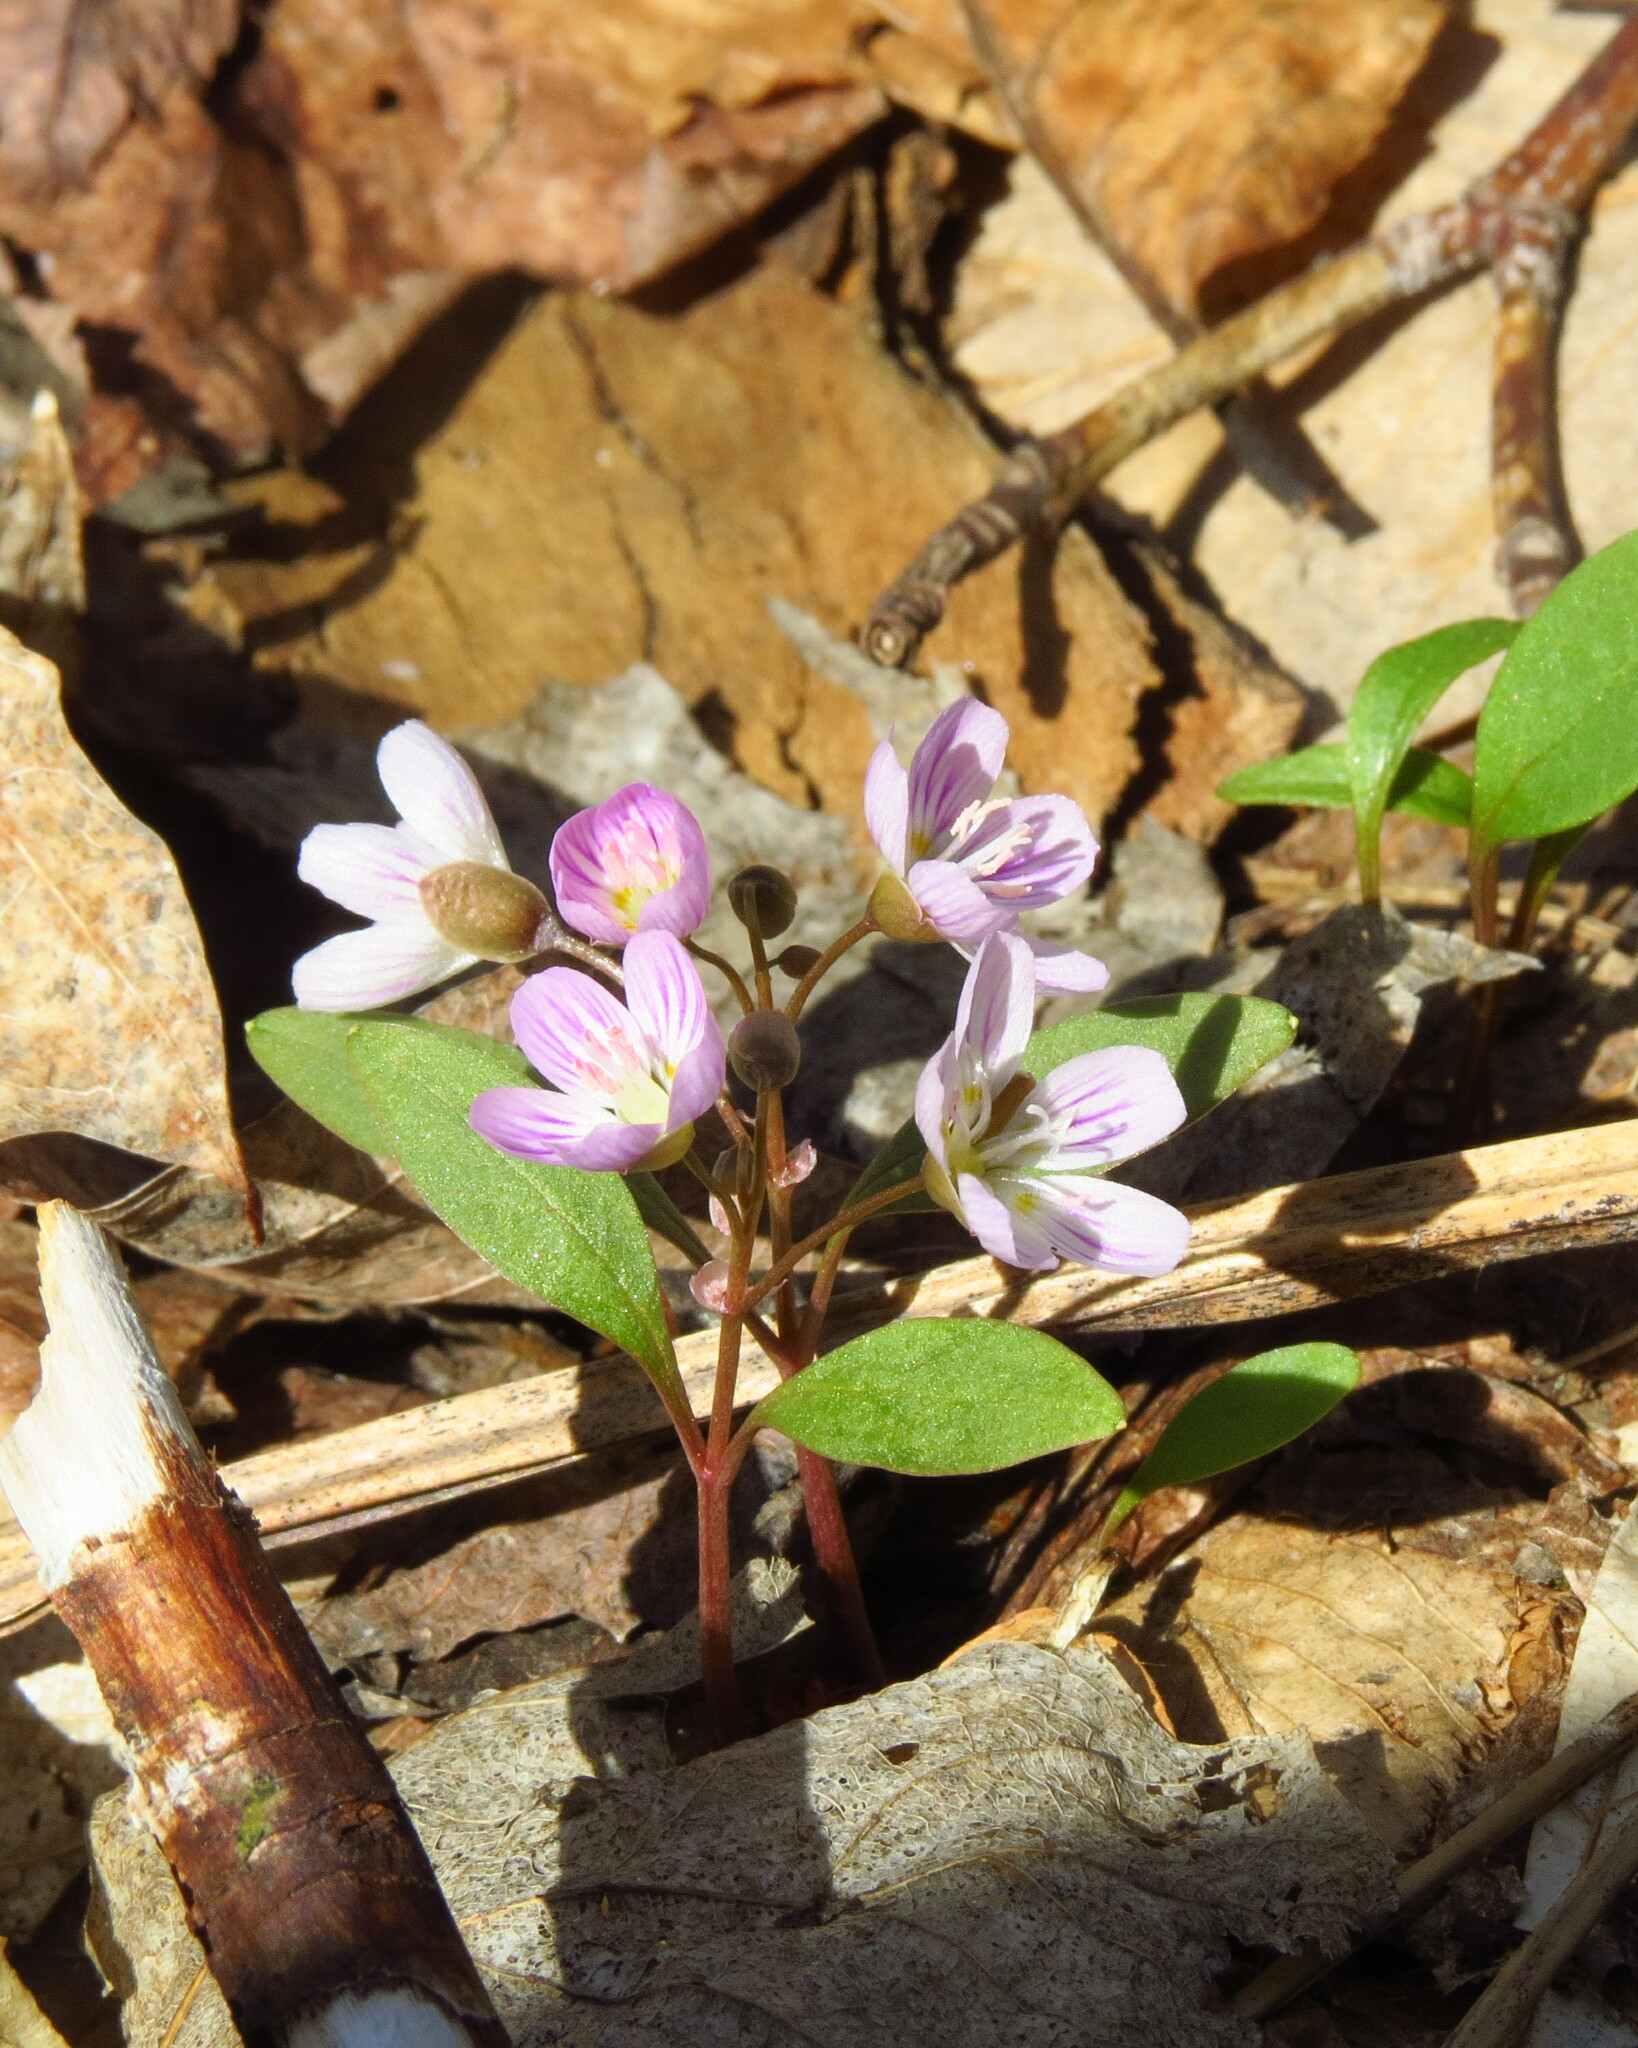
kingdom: Plantae
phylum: Tracheophyta
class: Magnoliopsida
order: Caryophyllales
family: Montiaceae
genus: Claytonia
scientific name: Claytonia caroliniana
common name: Carolina spring beauty
